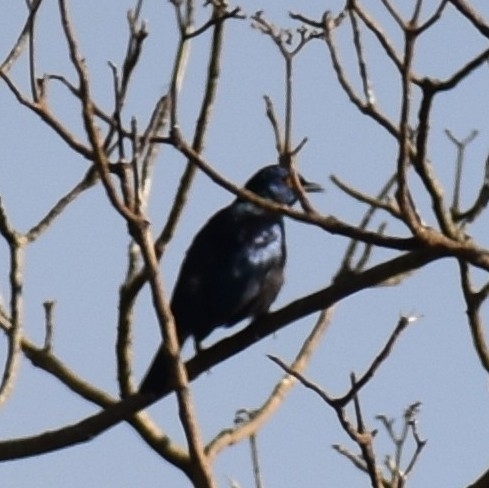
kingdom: Animalia
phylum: Chordata
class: Aves
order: Passeriformes
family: Sturnidae
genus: Notopholia
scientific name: Notopholia corrusca
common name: Black-bellied starling
